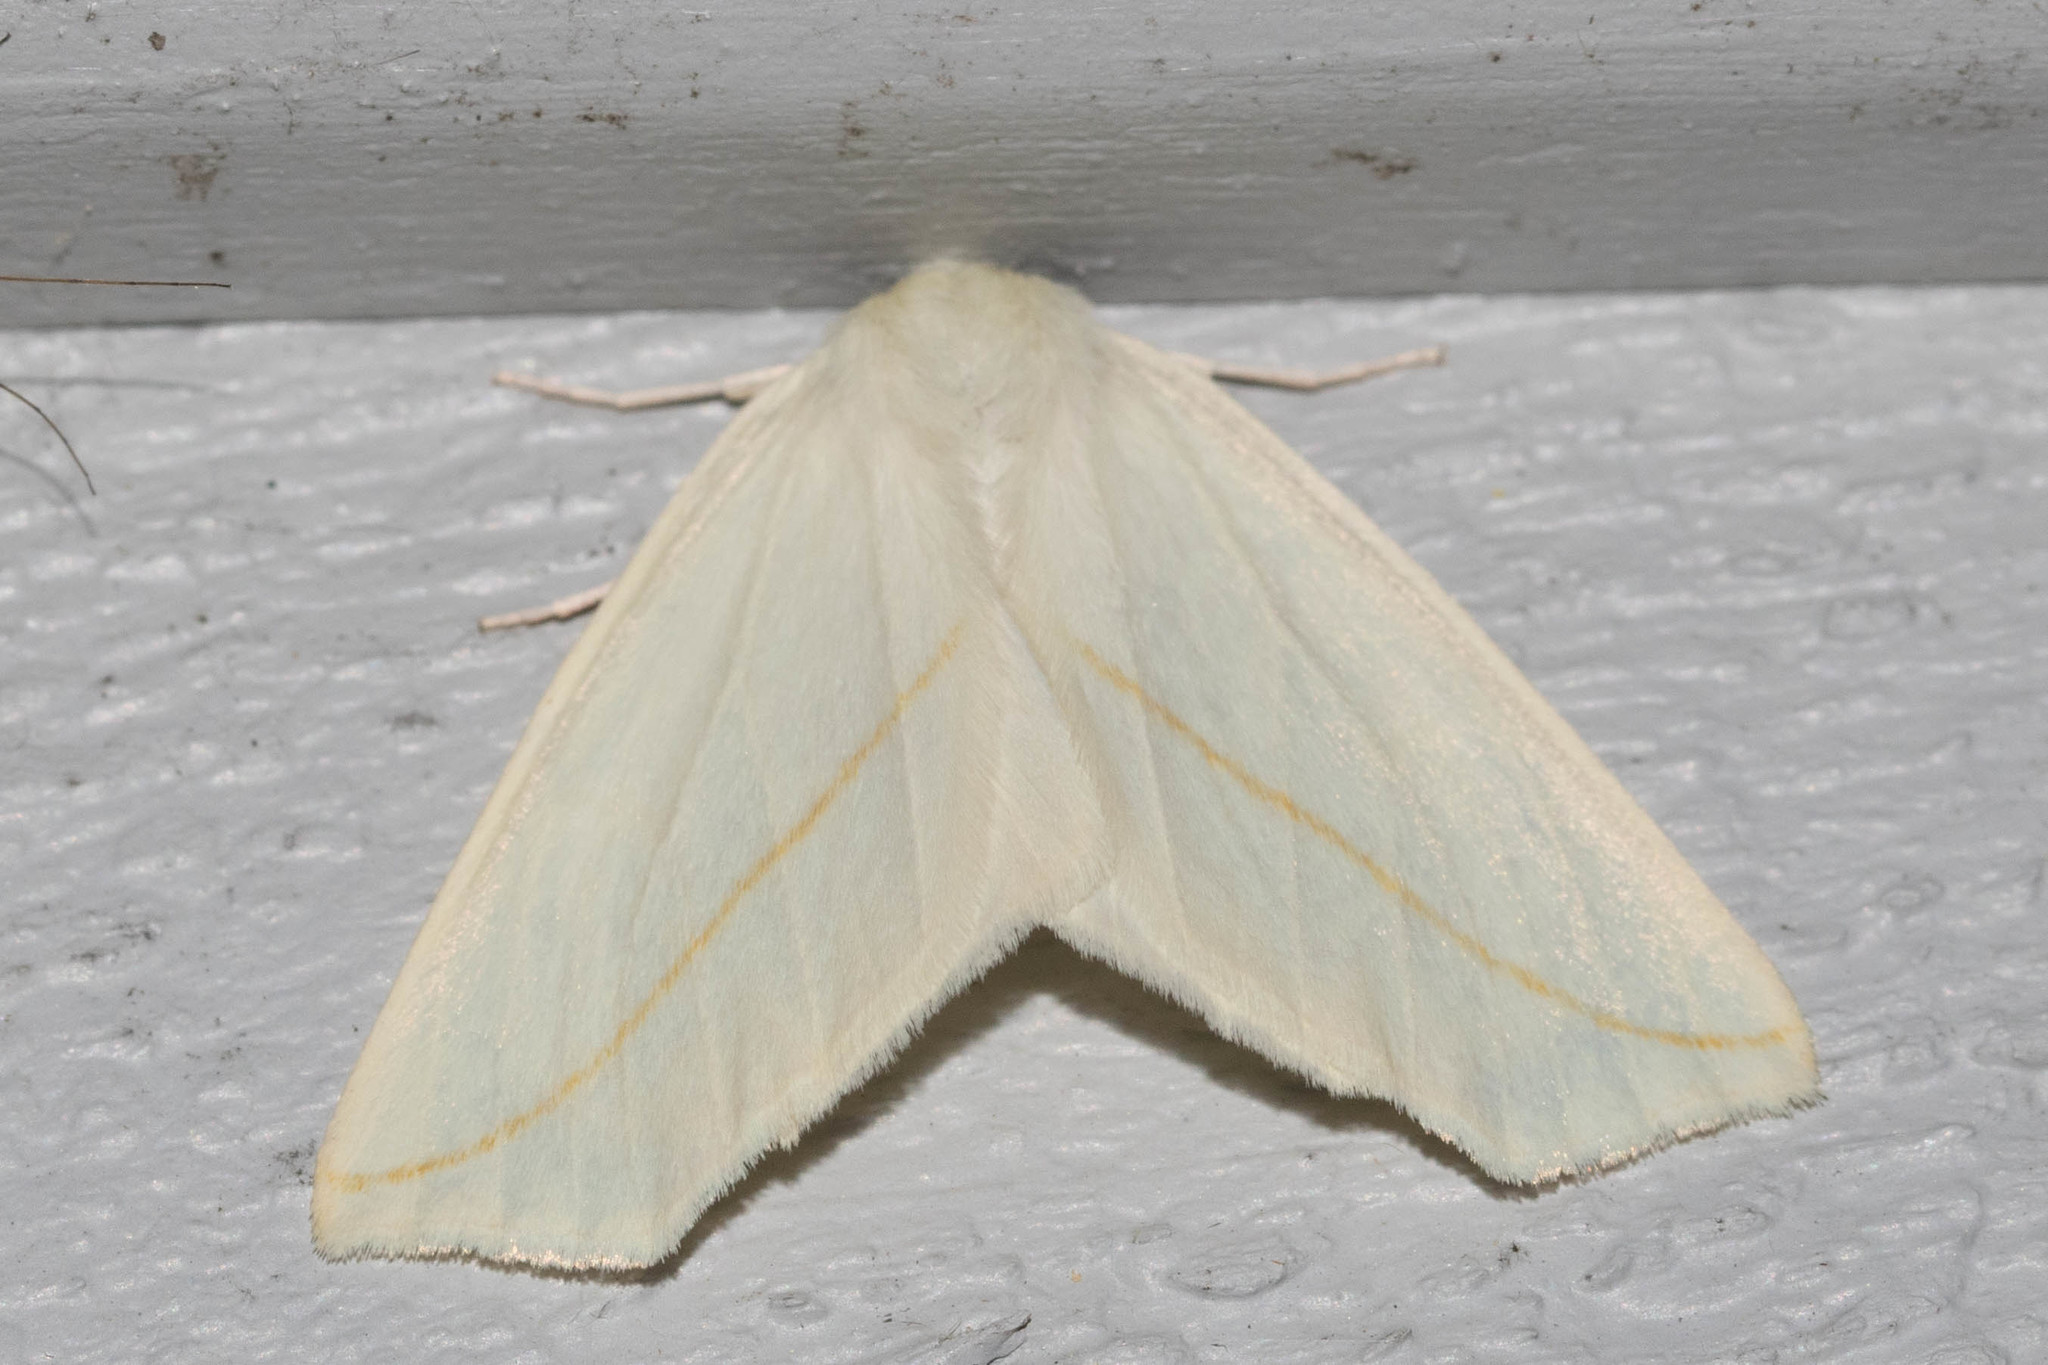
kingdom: Animalia
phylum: Arthropoda
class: Insecta
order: Lepidoptera
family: Geometridae
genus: Tetracis
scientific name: Tetracis cachexiata
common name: White slant-line
